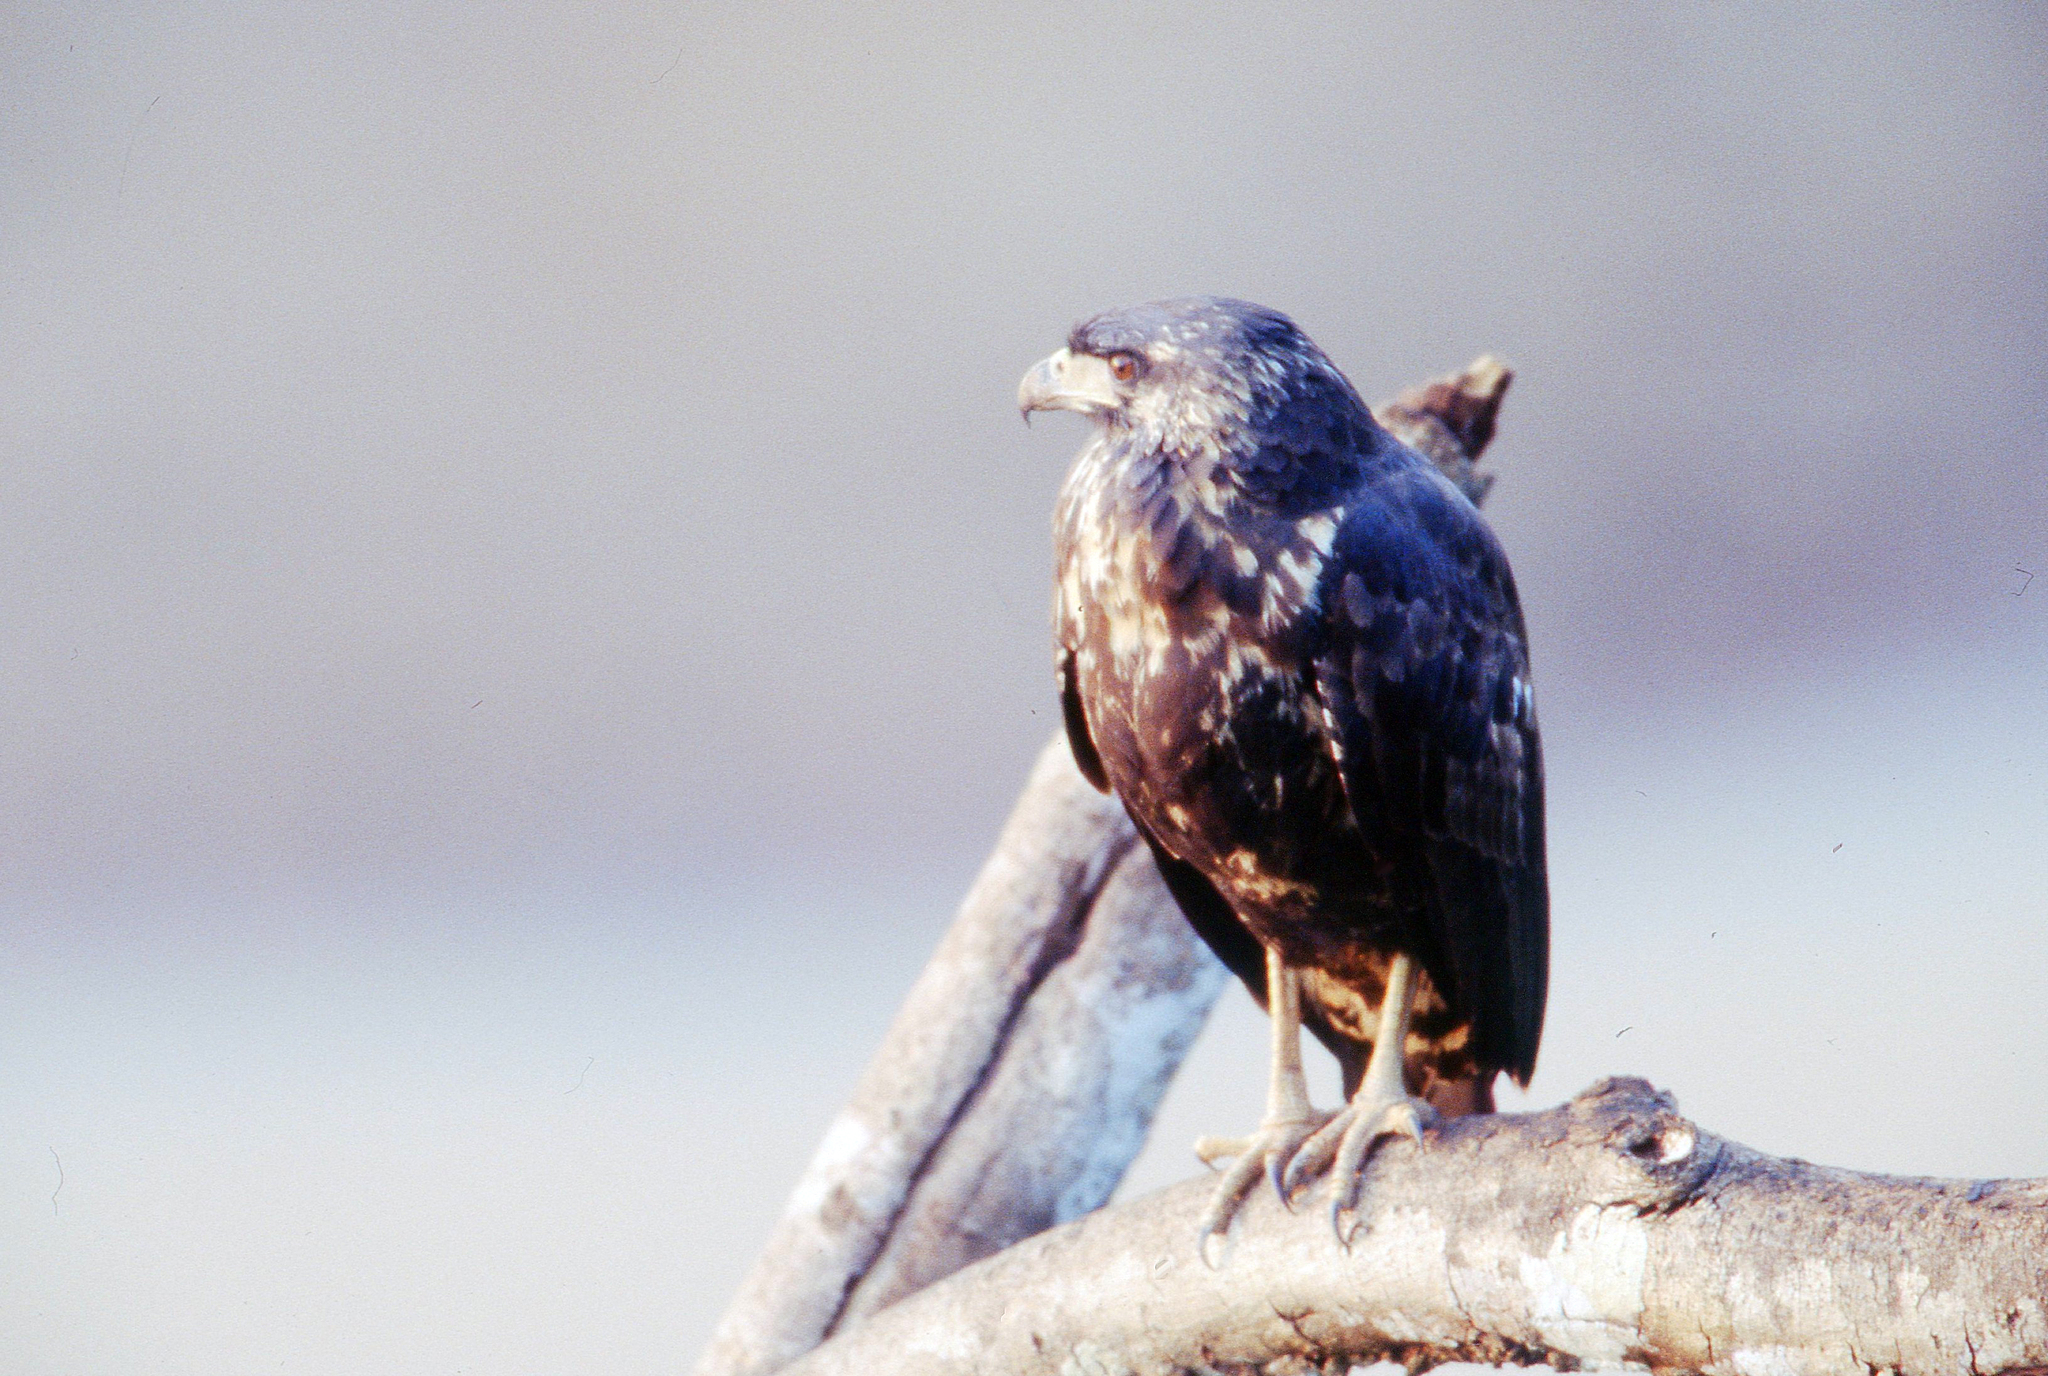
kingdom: Animalia
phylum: Chordata
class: Aves
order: Accipitriformes
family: Accipitridae
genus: Buteogallus
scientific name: Buteogallus urubitinga
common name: Great black hawk
